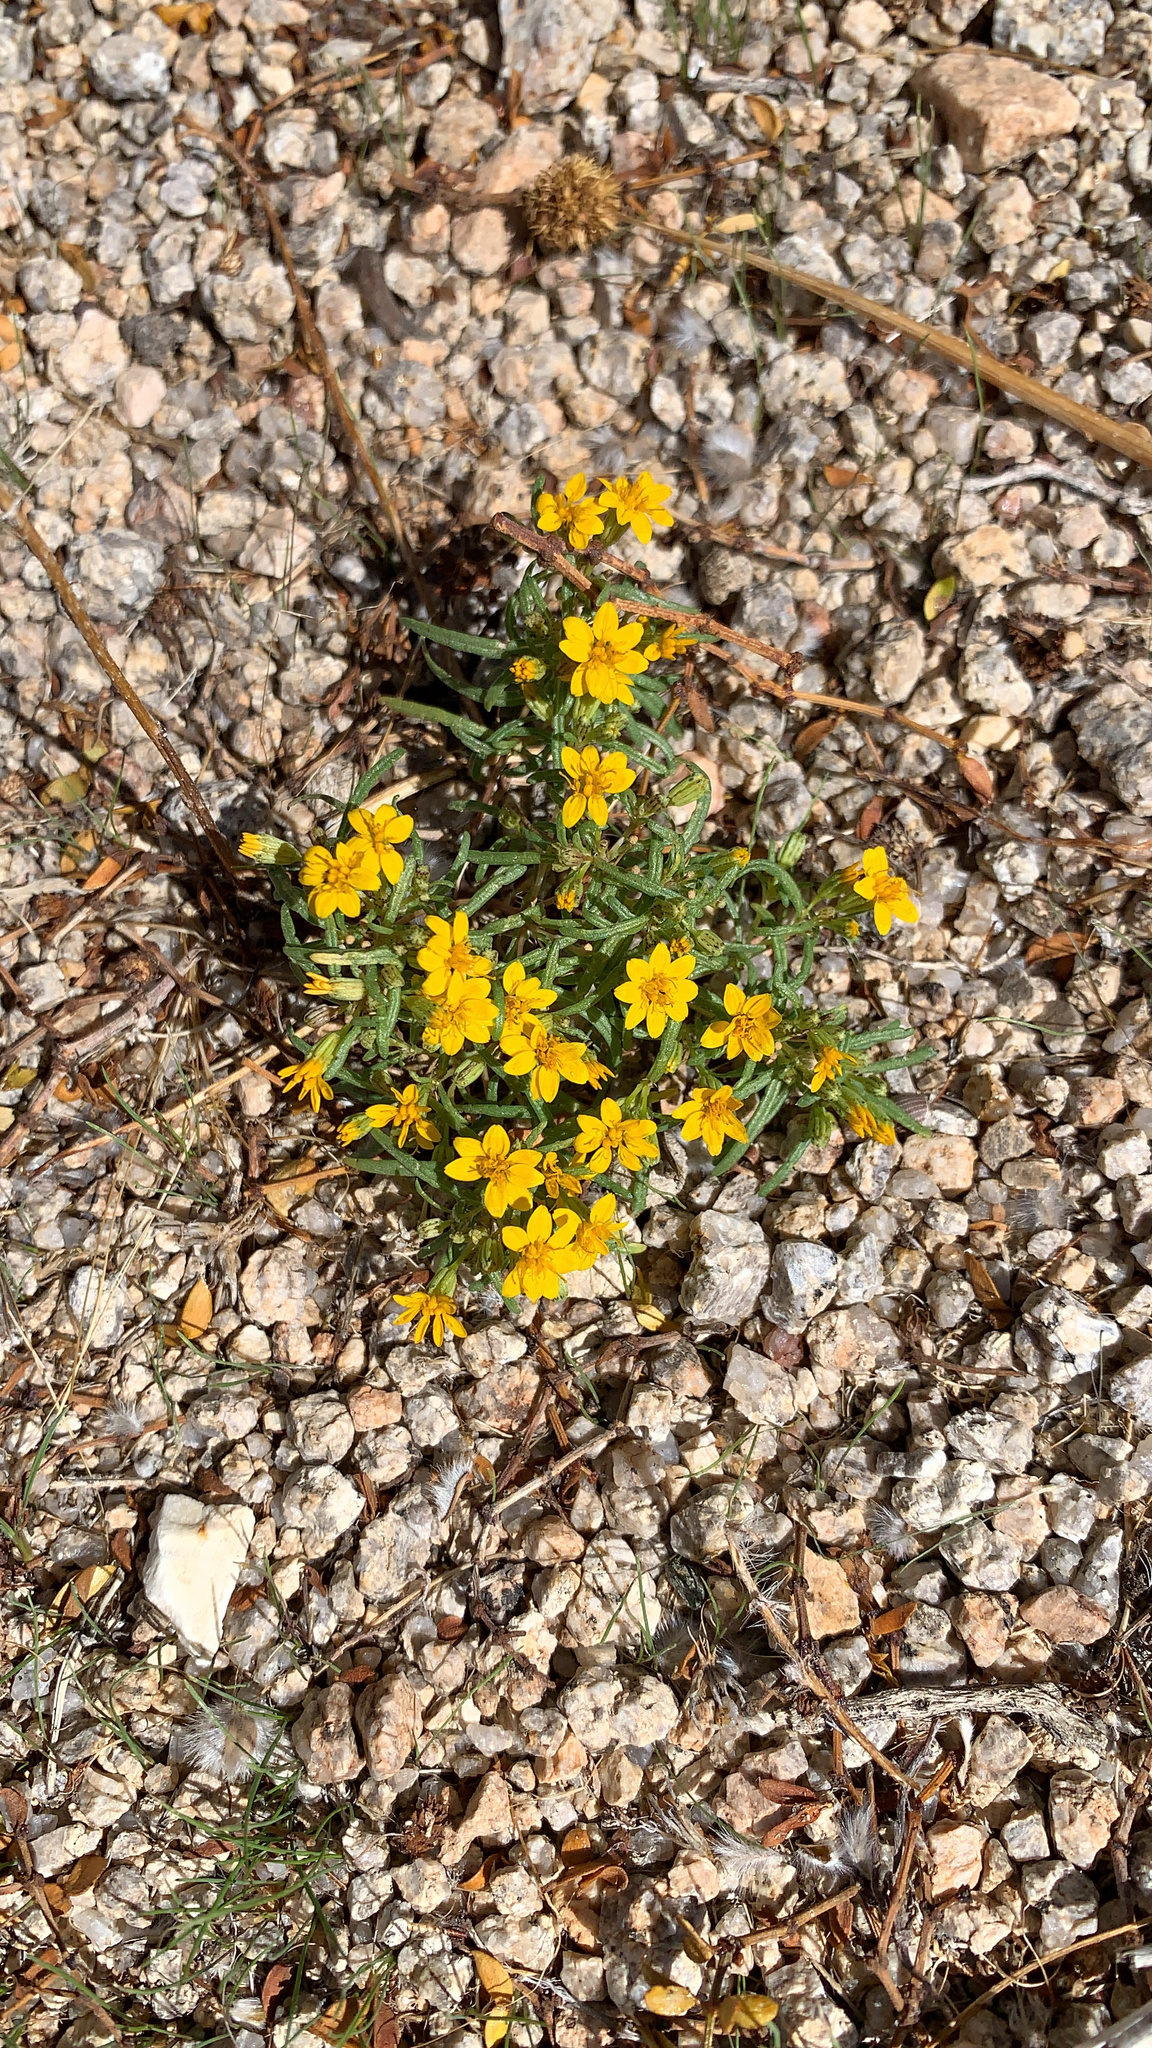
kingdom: Plantae
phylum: Tracheophyta
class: Magnoliopsida
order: Asterales
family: Asteraceae
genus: Pectis
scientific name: Pectis papposa
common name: Many-bristle chinchweed
